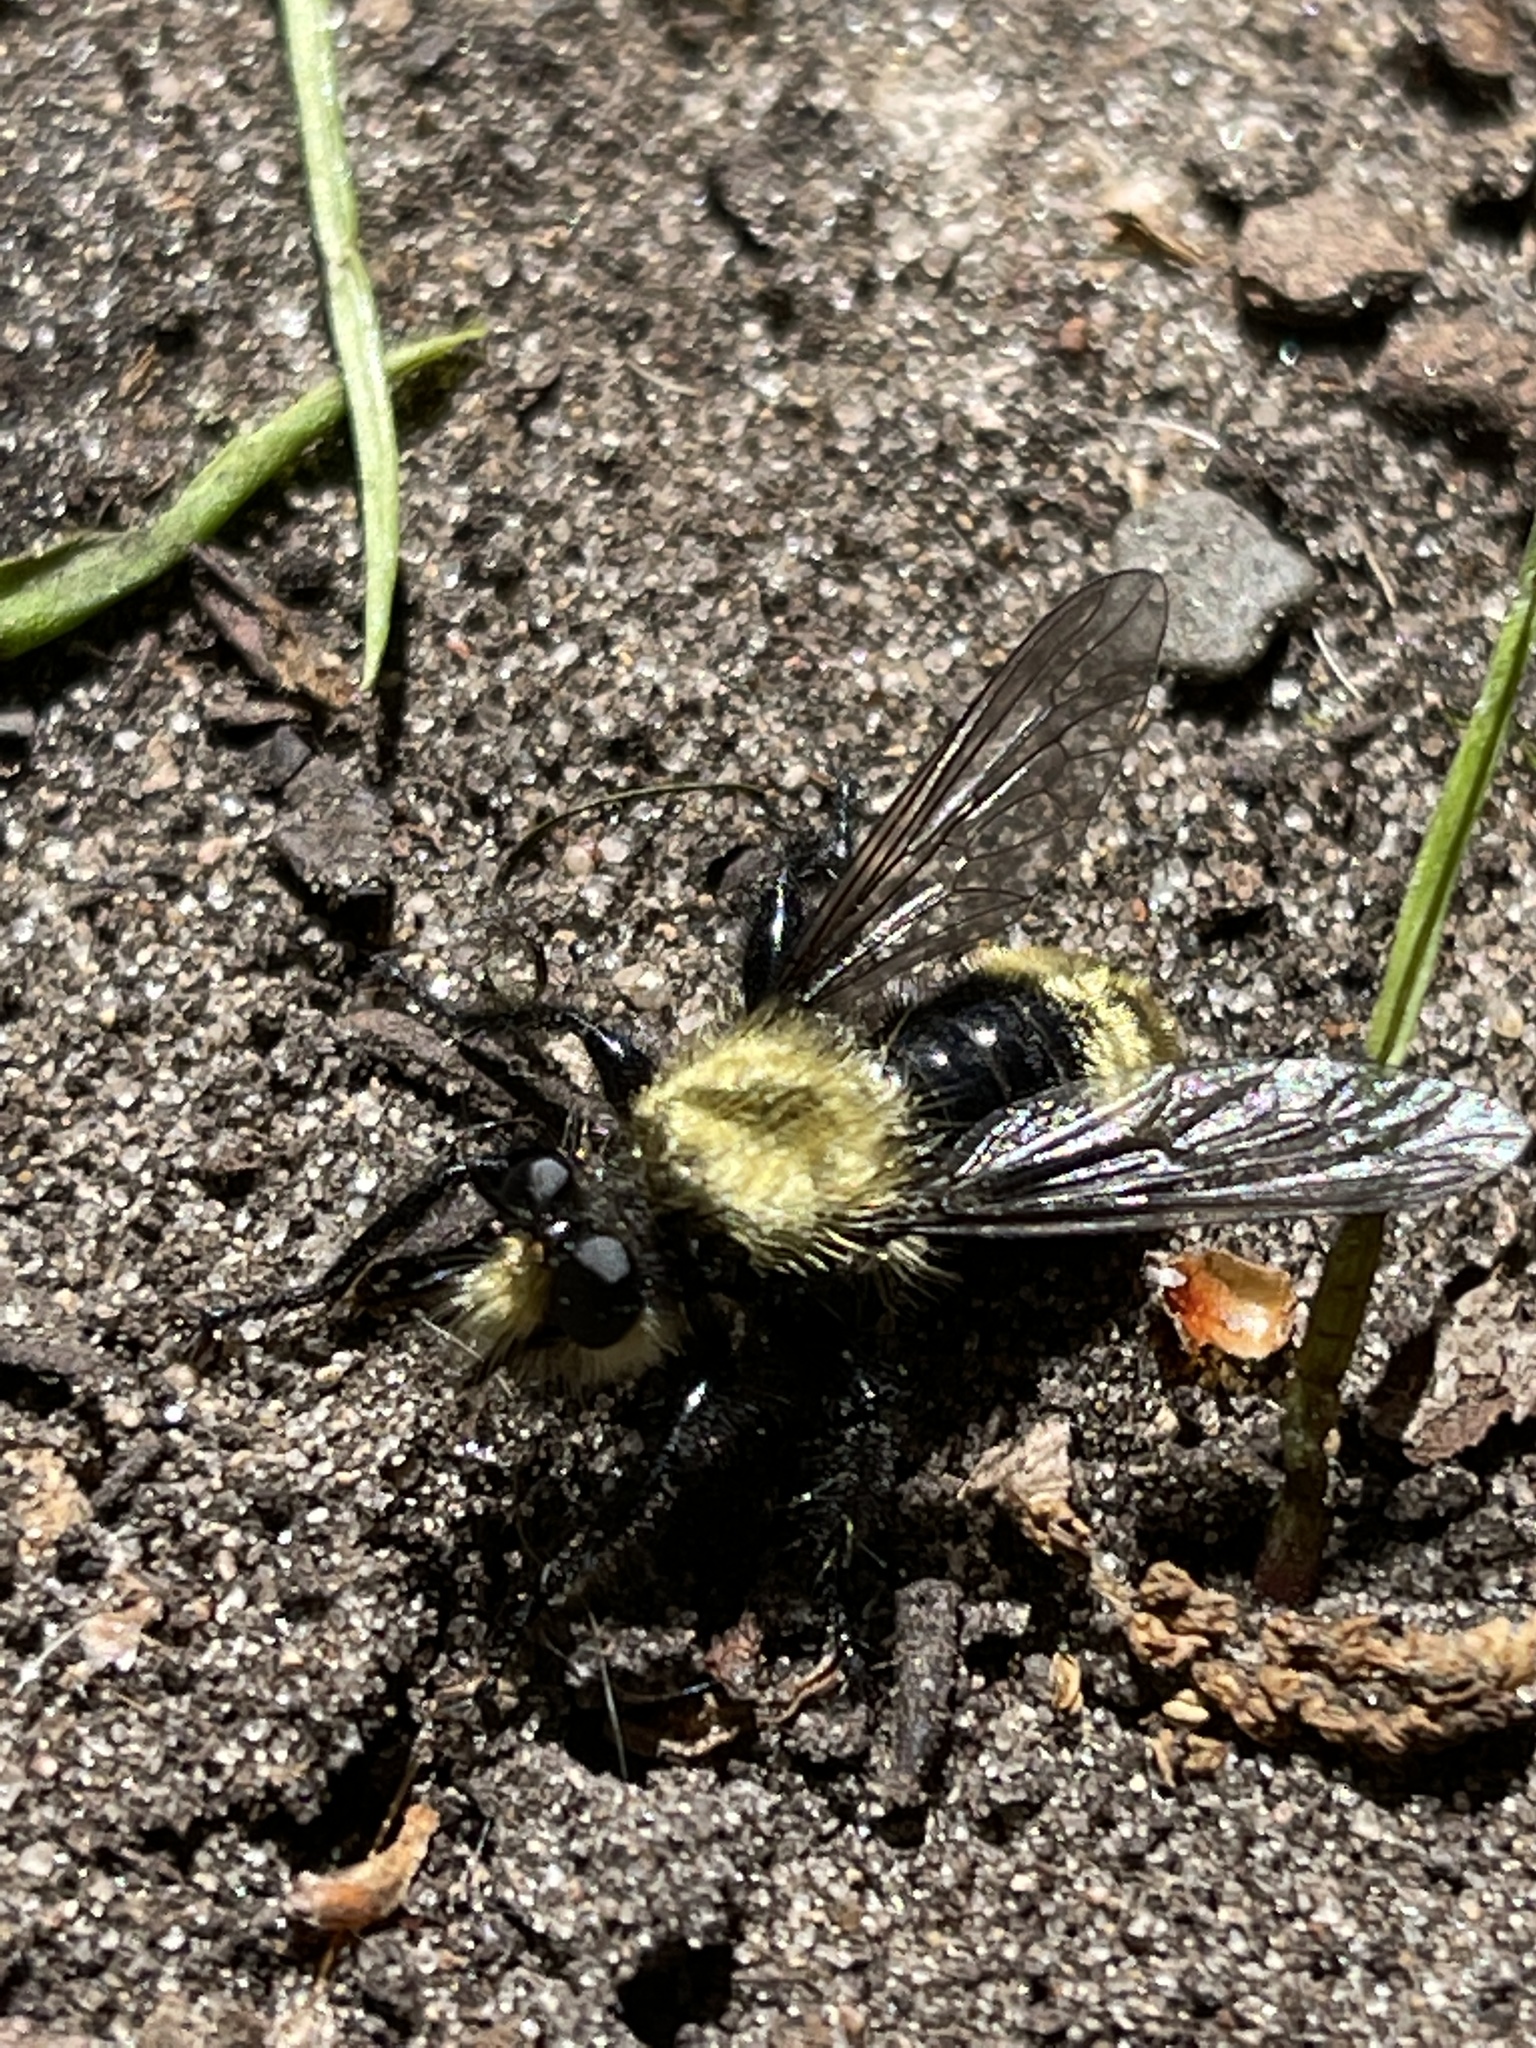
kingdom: Animalia
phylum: Arthropoda
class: Insecta
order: Diptera
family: Asilidae
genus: Laphria
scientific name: Laphria divisor
